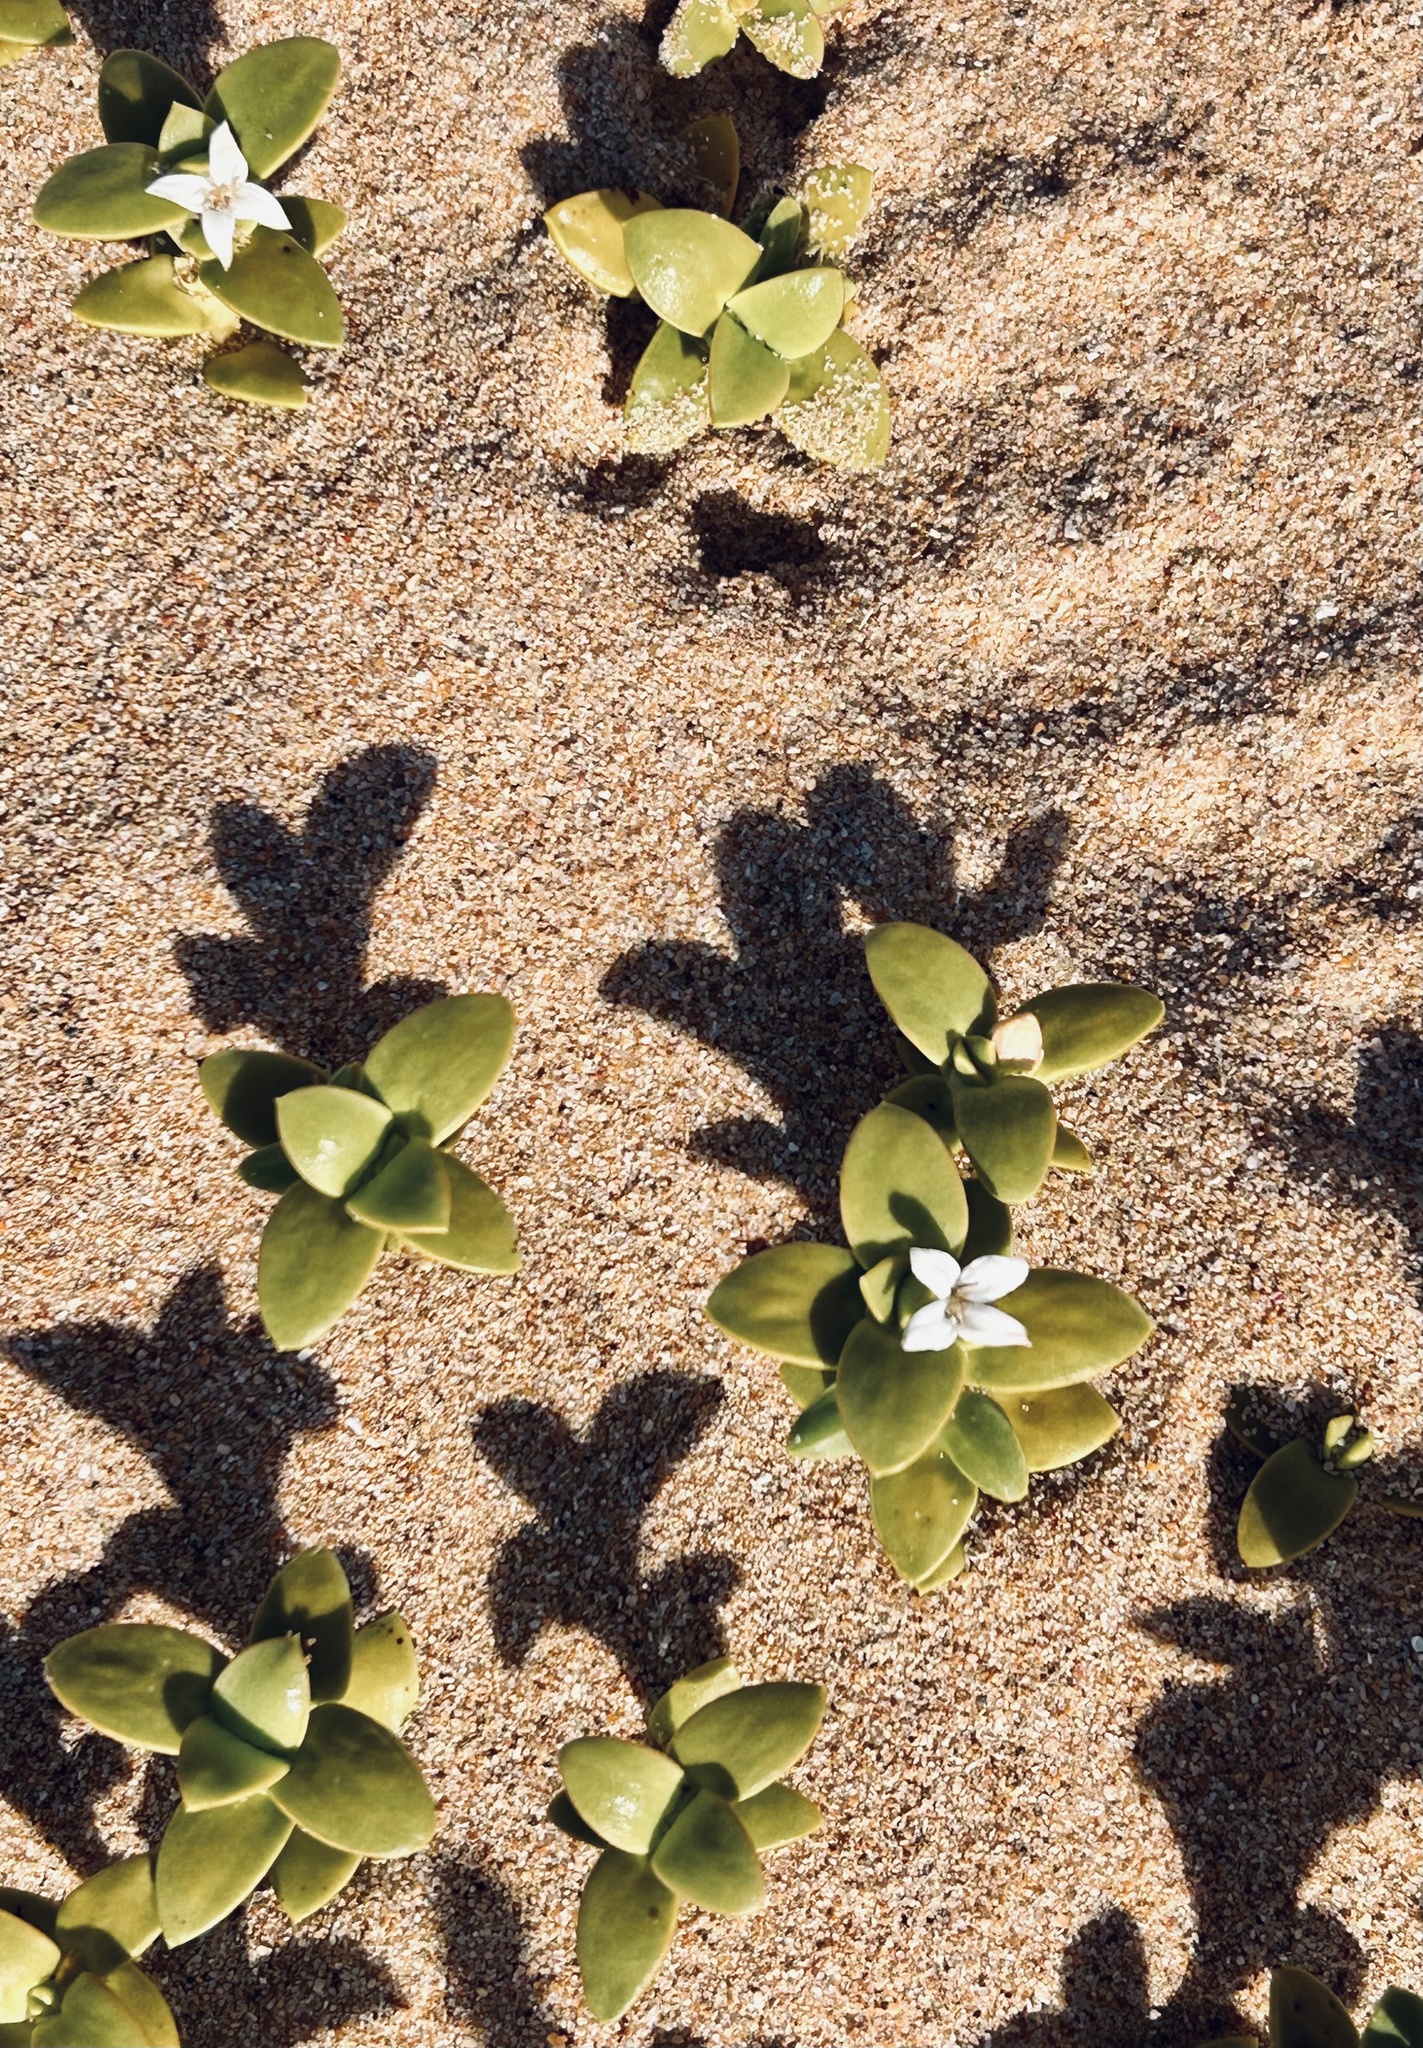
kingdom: Plantae
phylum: Tracheophyta
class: Magnoliopsida
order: Gentianales
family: Rubiaceae
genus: Phylohydrax
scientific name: Phylohydrax carnosa
